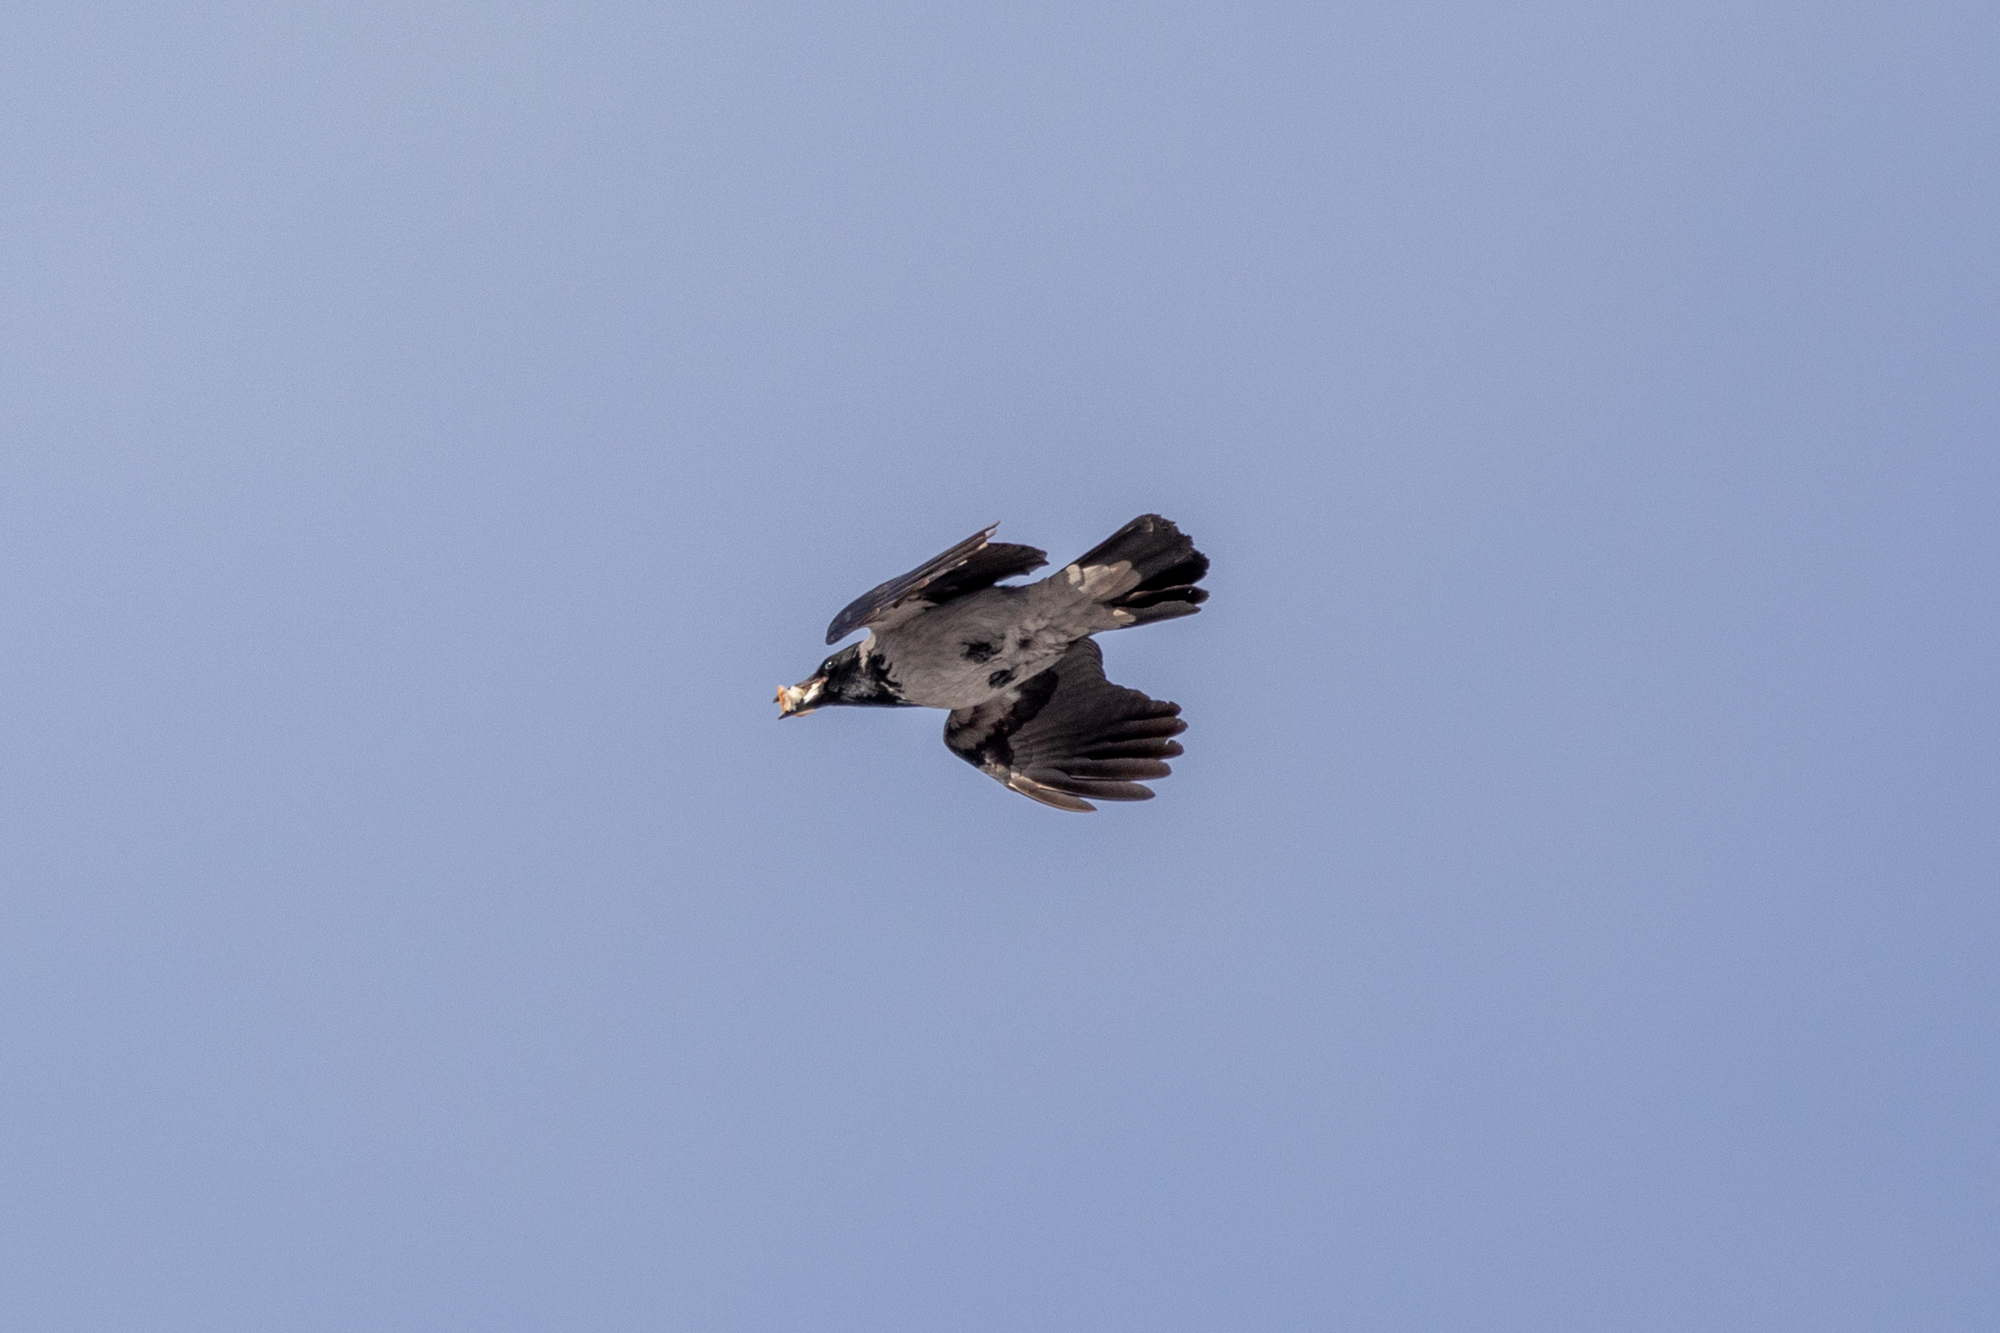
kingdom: Animalia
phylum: Chordata
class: Aves
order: Passeriformes
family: Corvidae
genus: Corvus
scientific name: Corvus cornix
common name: Hooded crow
